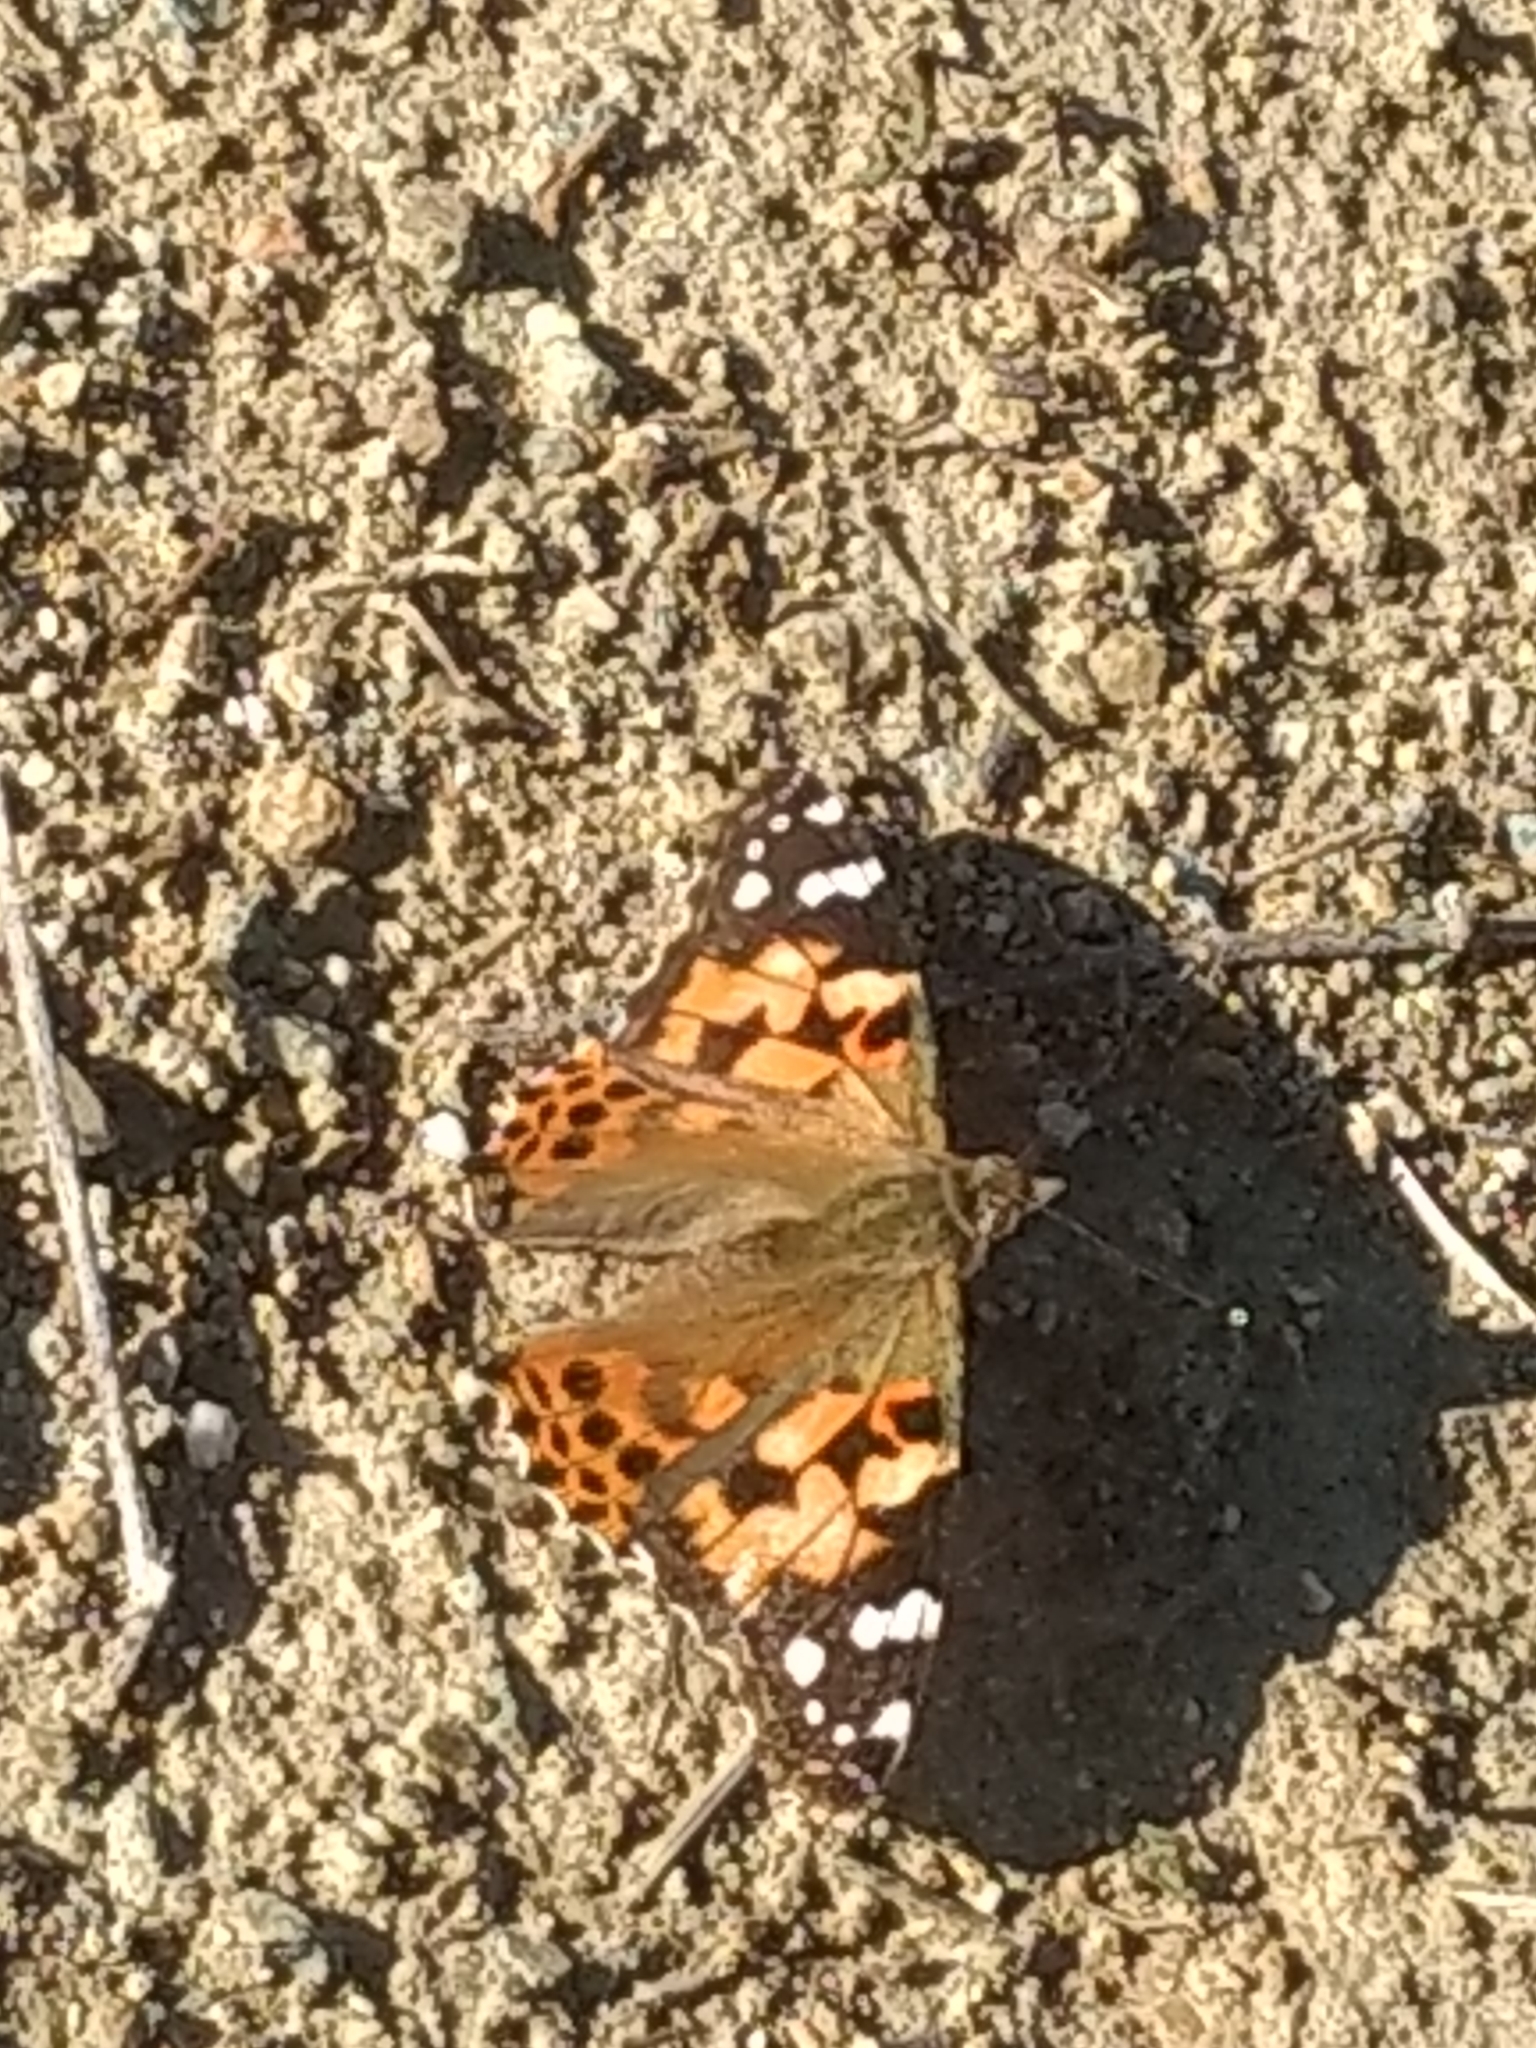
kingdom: Animalia
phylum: Arthropoda
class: Insecta
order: Lepidoptera
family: Nymphalidae
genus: Vanessa
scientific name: Vanessa cardui
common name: Painted lady
